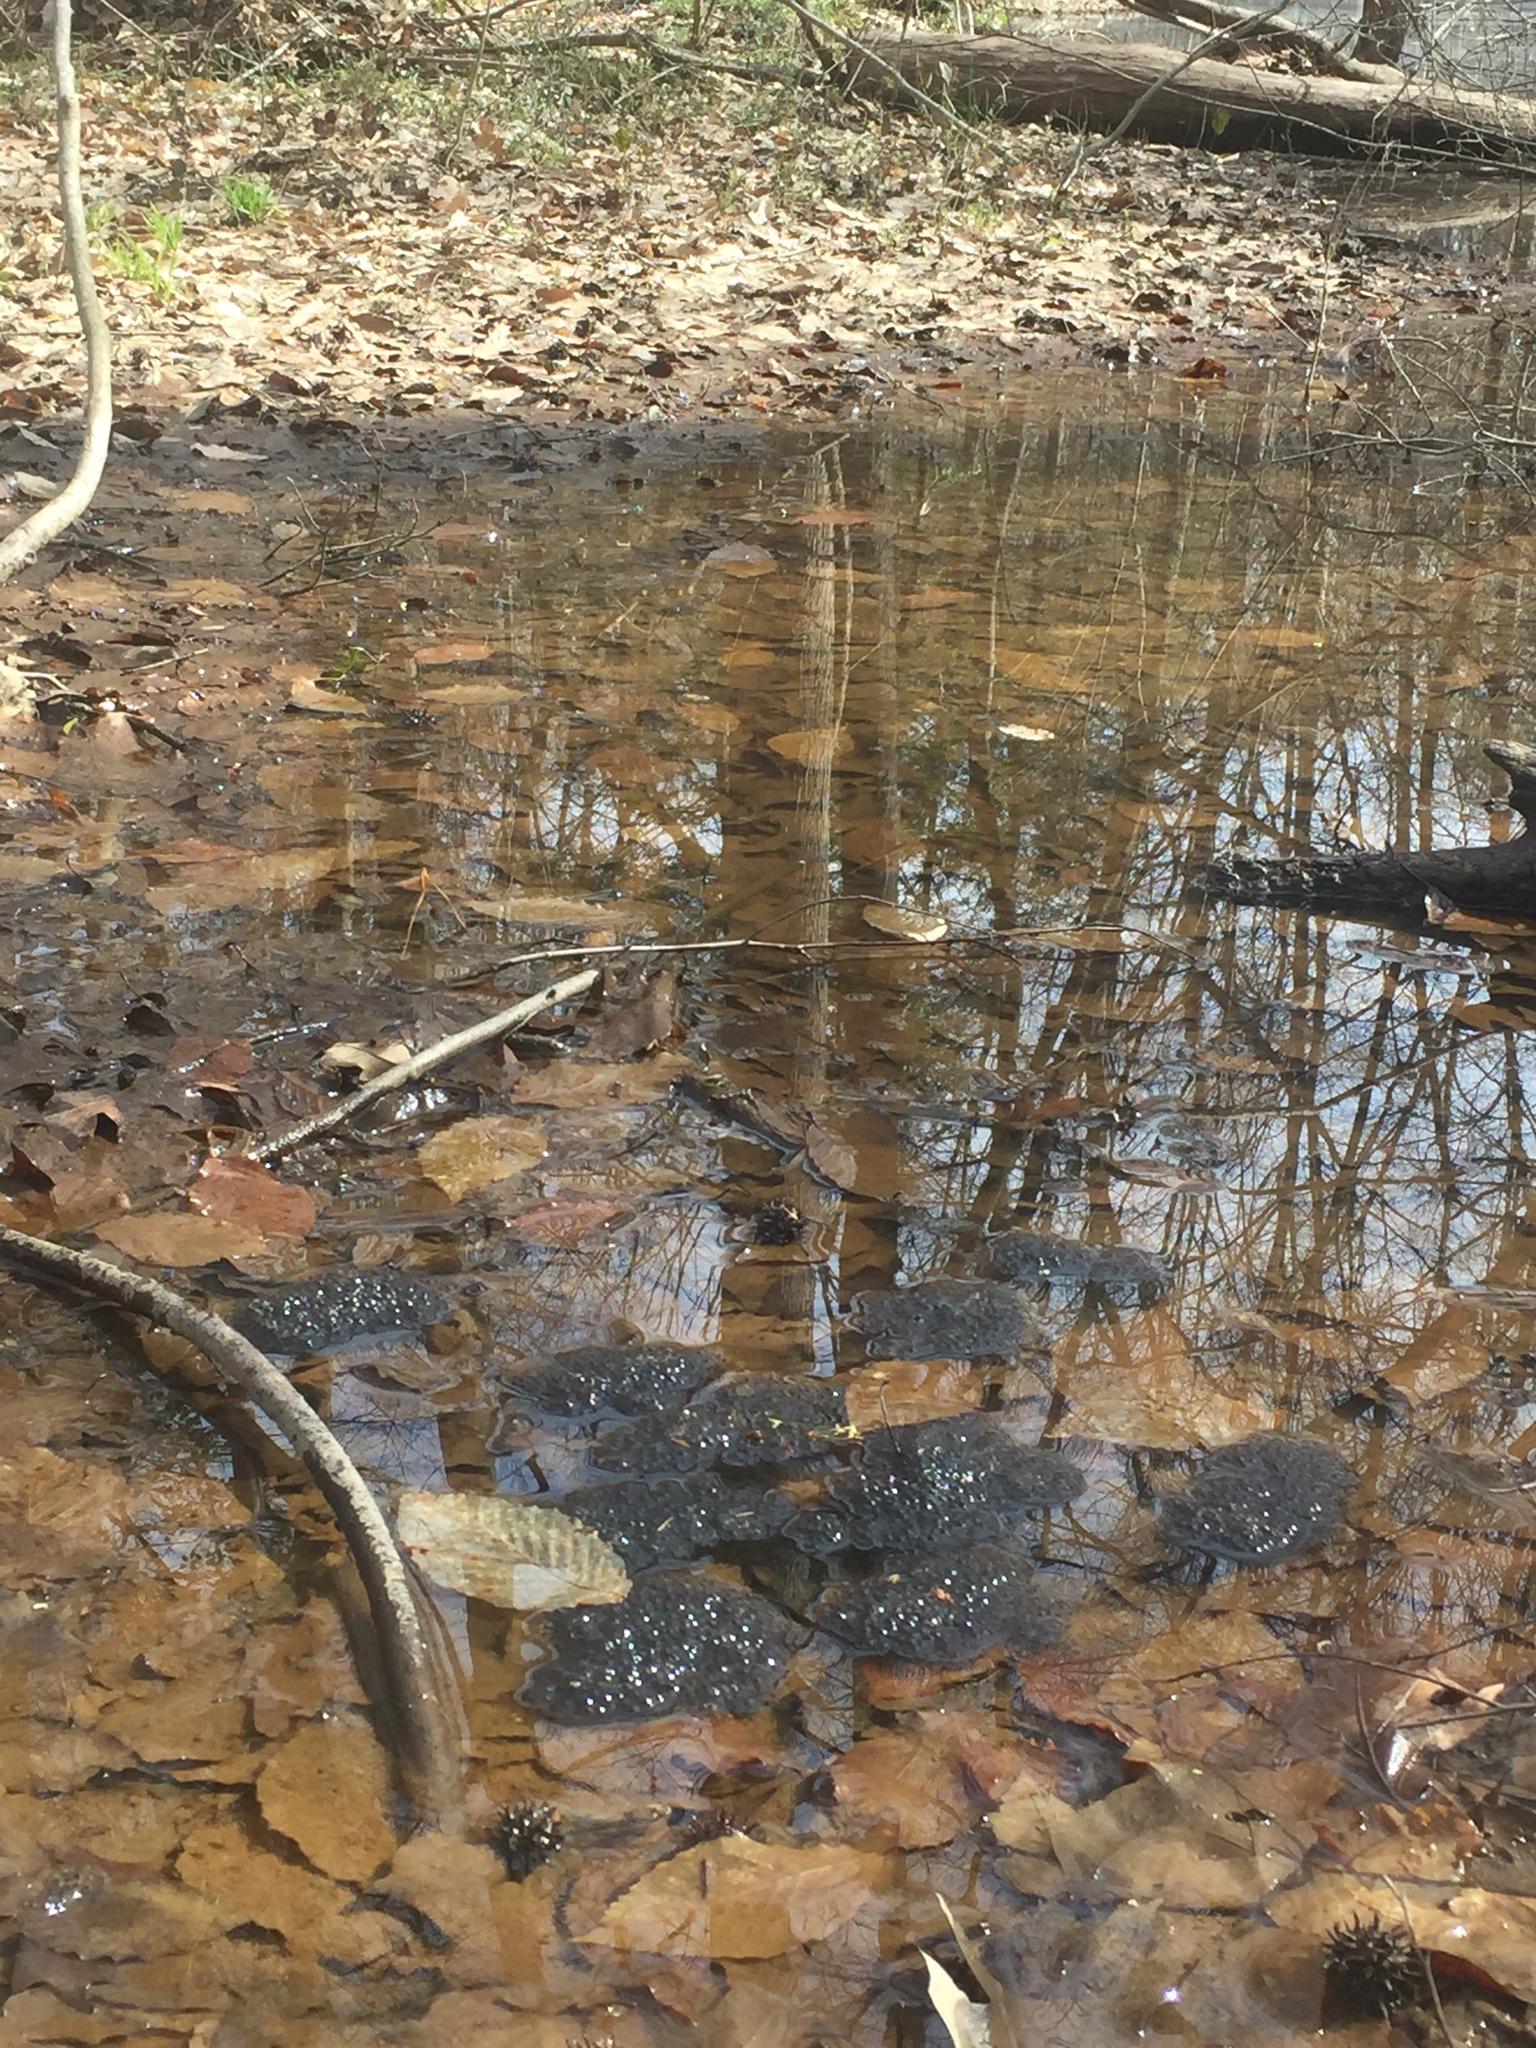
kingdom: Animalia
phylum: Chordata
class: Amphibia
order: Anura
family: Ranidae
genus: Lithobates
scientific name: Lithobates sphenocephalus
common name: Southern leopard frog
